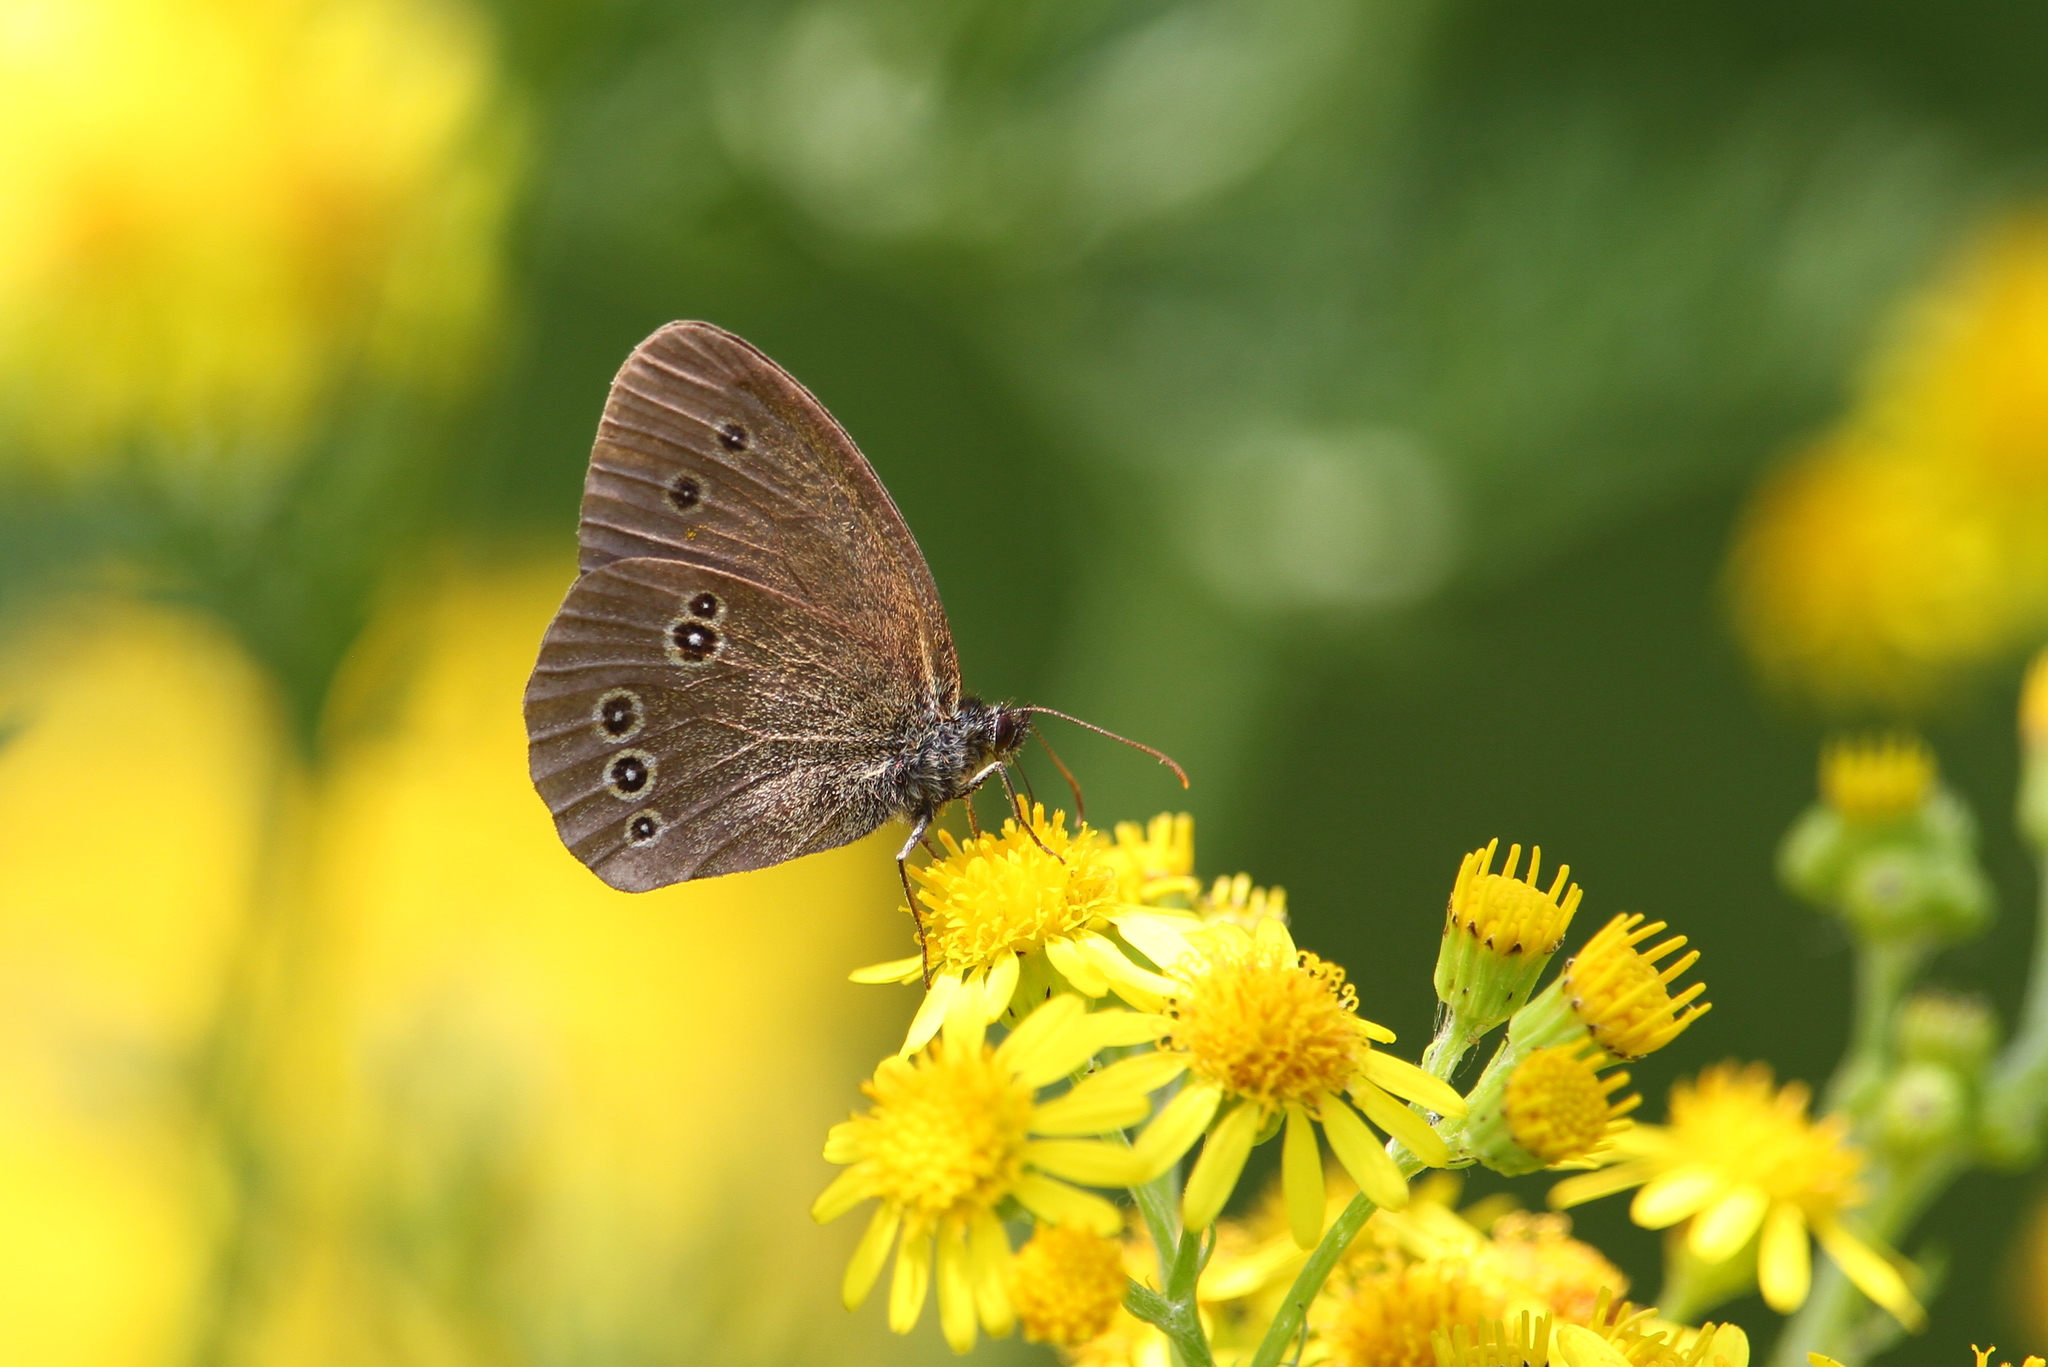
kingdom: Animalia
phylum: Arthropoda
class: Insecta
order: Lepidoptera
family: Nymphalidae
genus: Aphantopus
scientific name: Aphantopus hyperantus
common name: Ringlet
